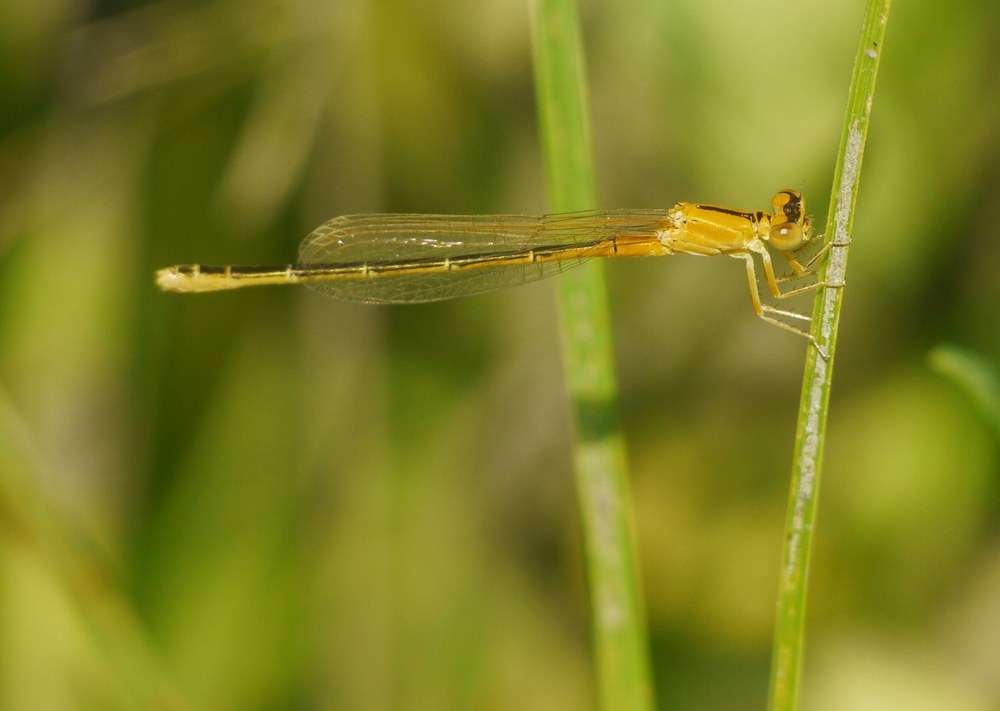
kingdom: Animalia
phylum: Arthropoda
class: Insecta
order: Odonata
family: Coenagrionidae
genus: Ischnura
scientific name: Ischnura pumilio
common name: Scarce blue-tailed damselfly
